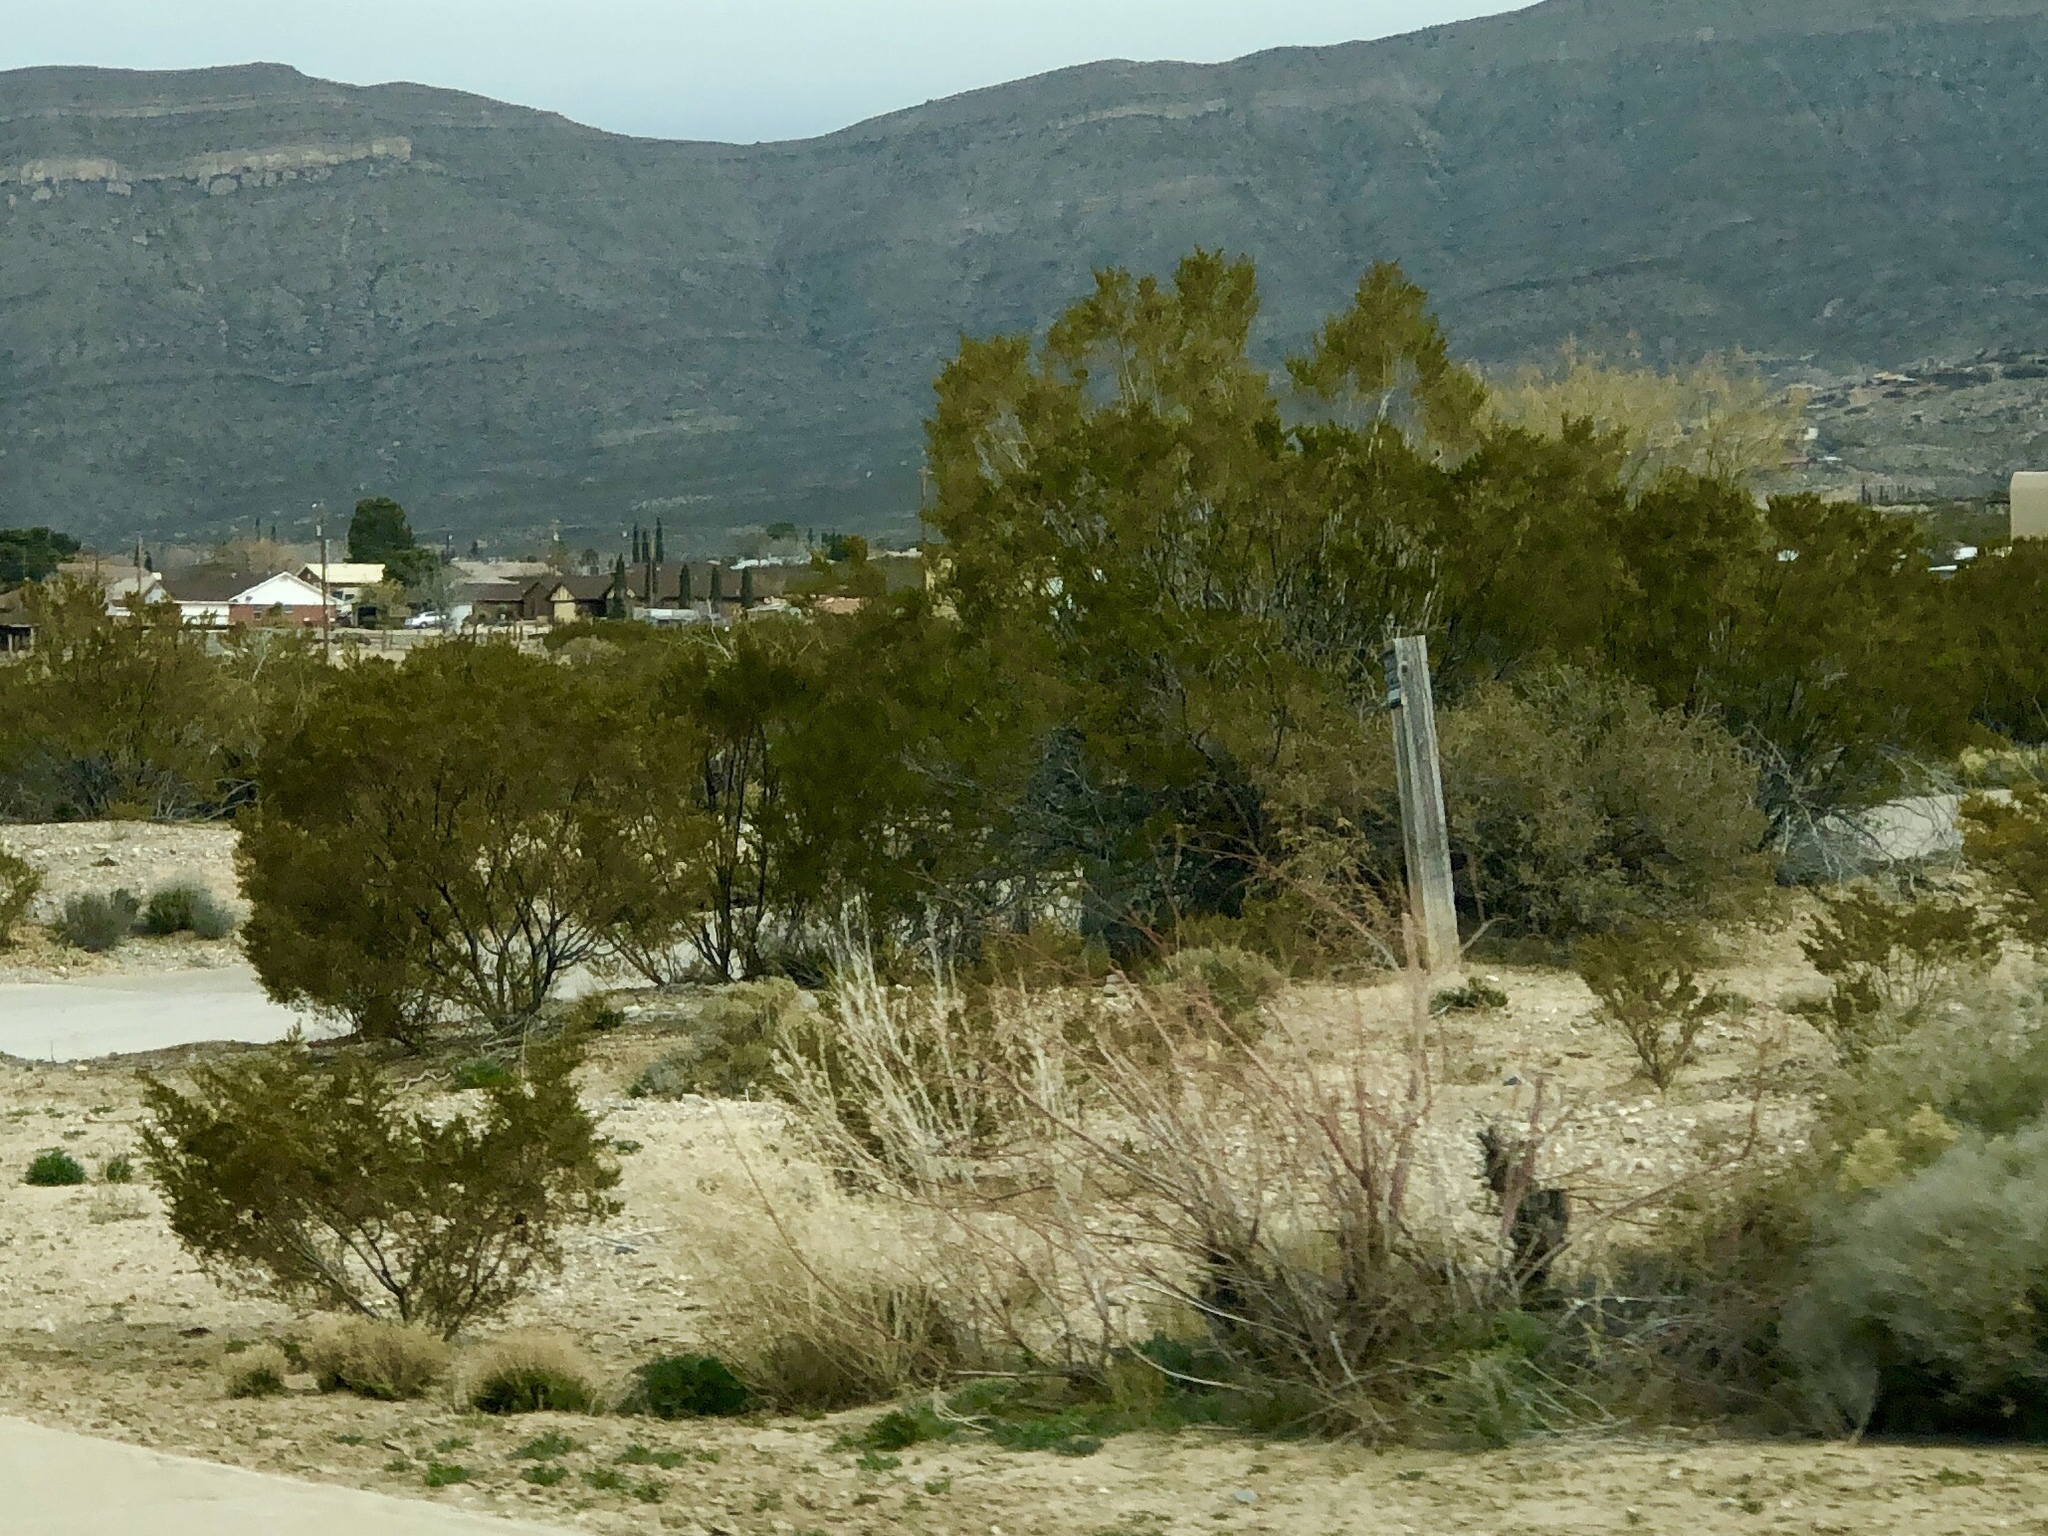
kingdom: Plantae
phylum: Tracheophyta
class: Magnoliopsida
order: Zygophyllales
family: Zygophyllaceae
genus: Larrea
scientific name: Larrea tridentata
